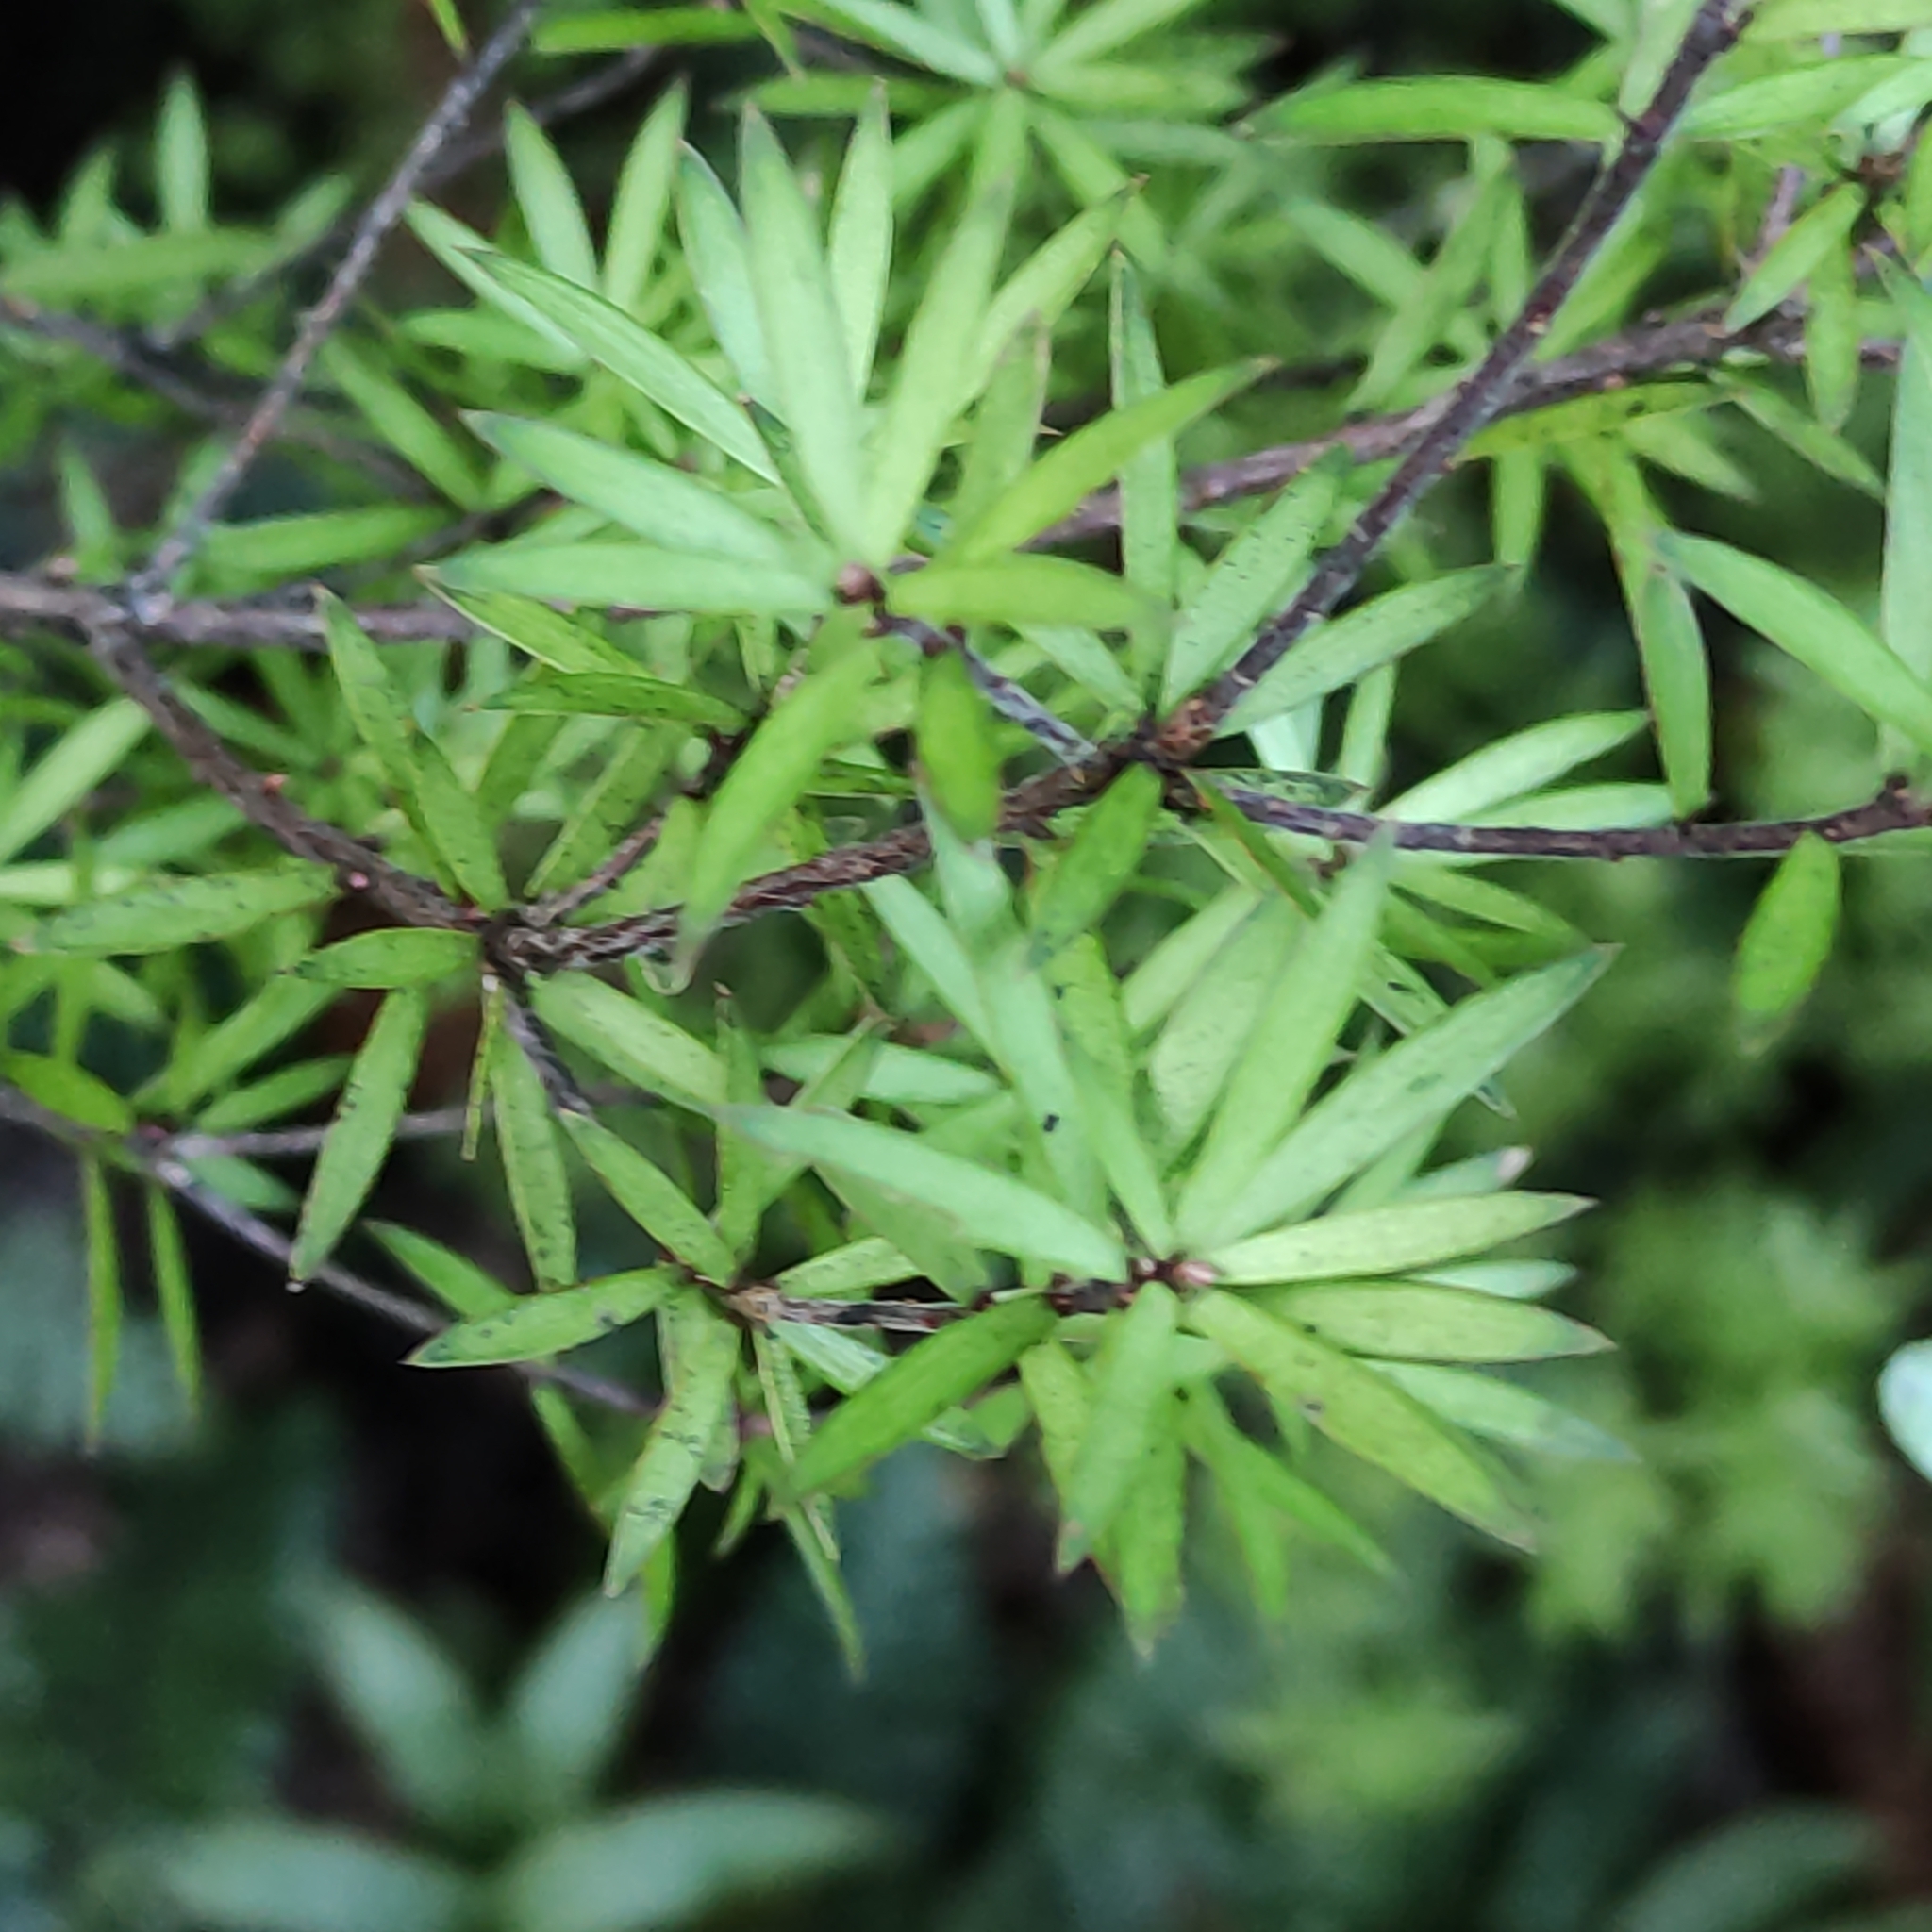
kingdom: Plantae
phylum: Tracheophyta
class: Magnoliopsida
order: Ericales
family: Ericaceae
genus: Leucopogon
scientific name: Leucopogon fasciculatus
